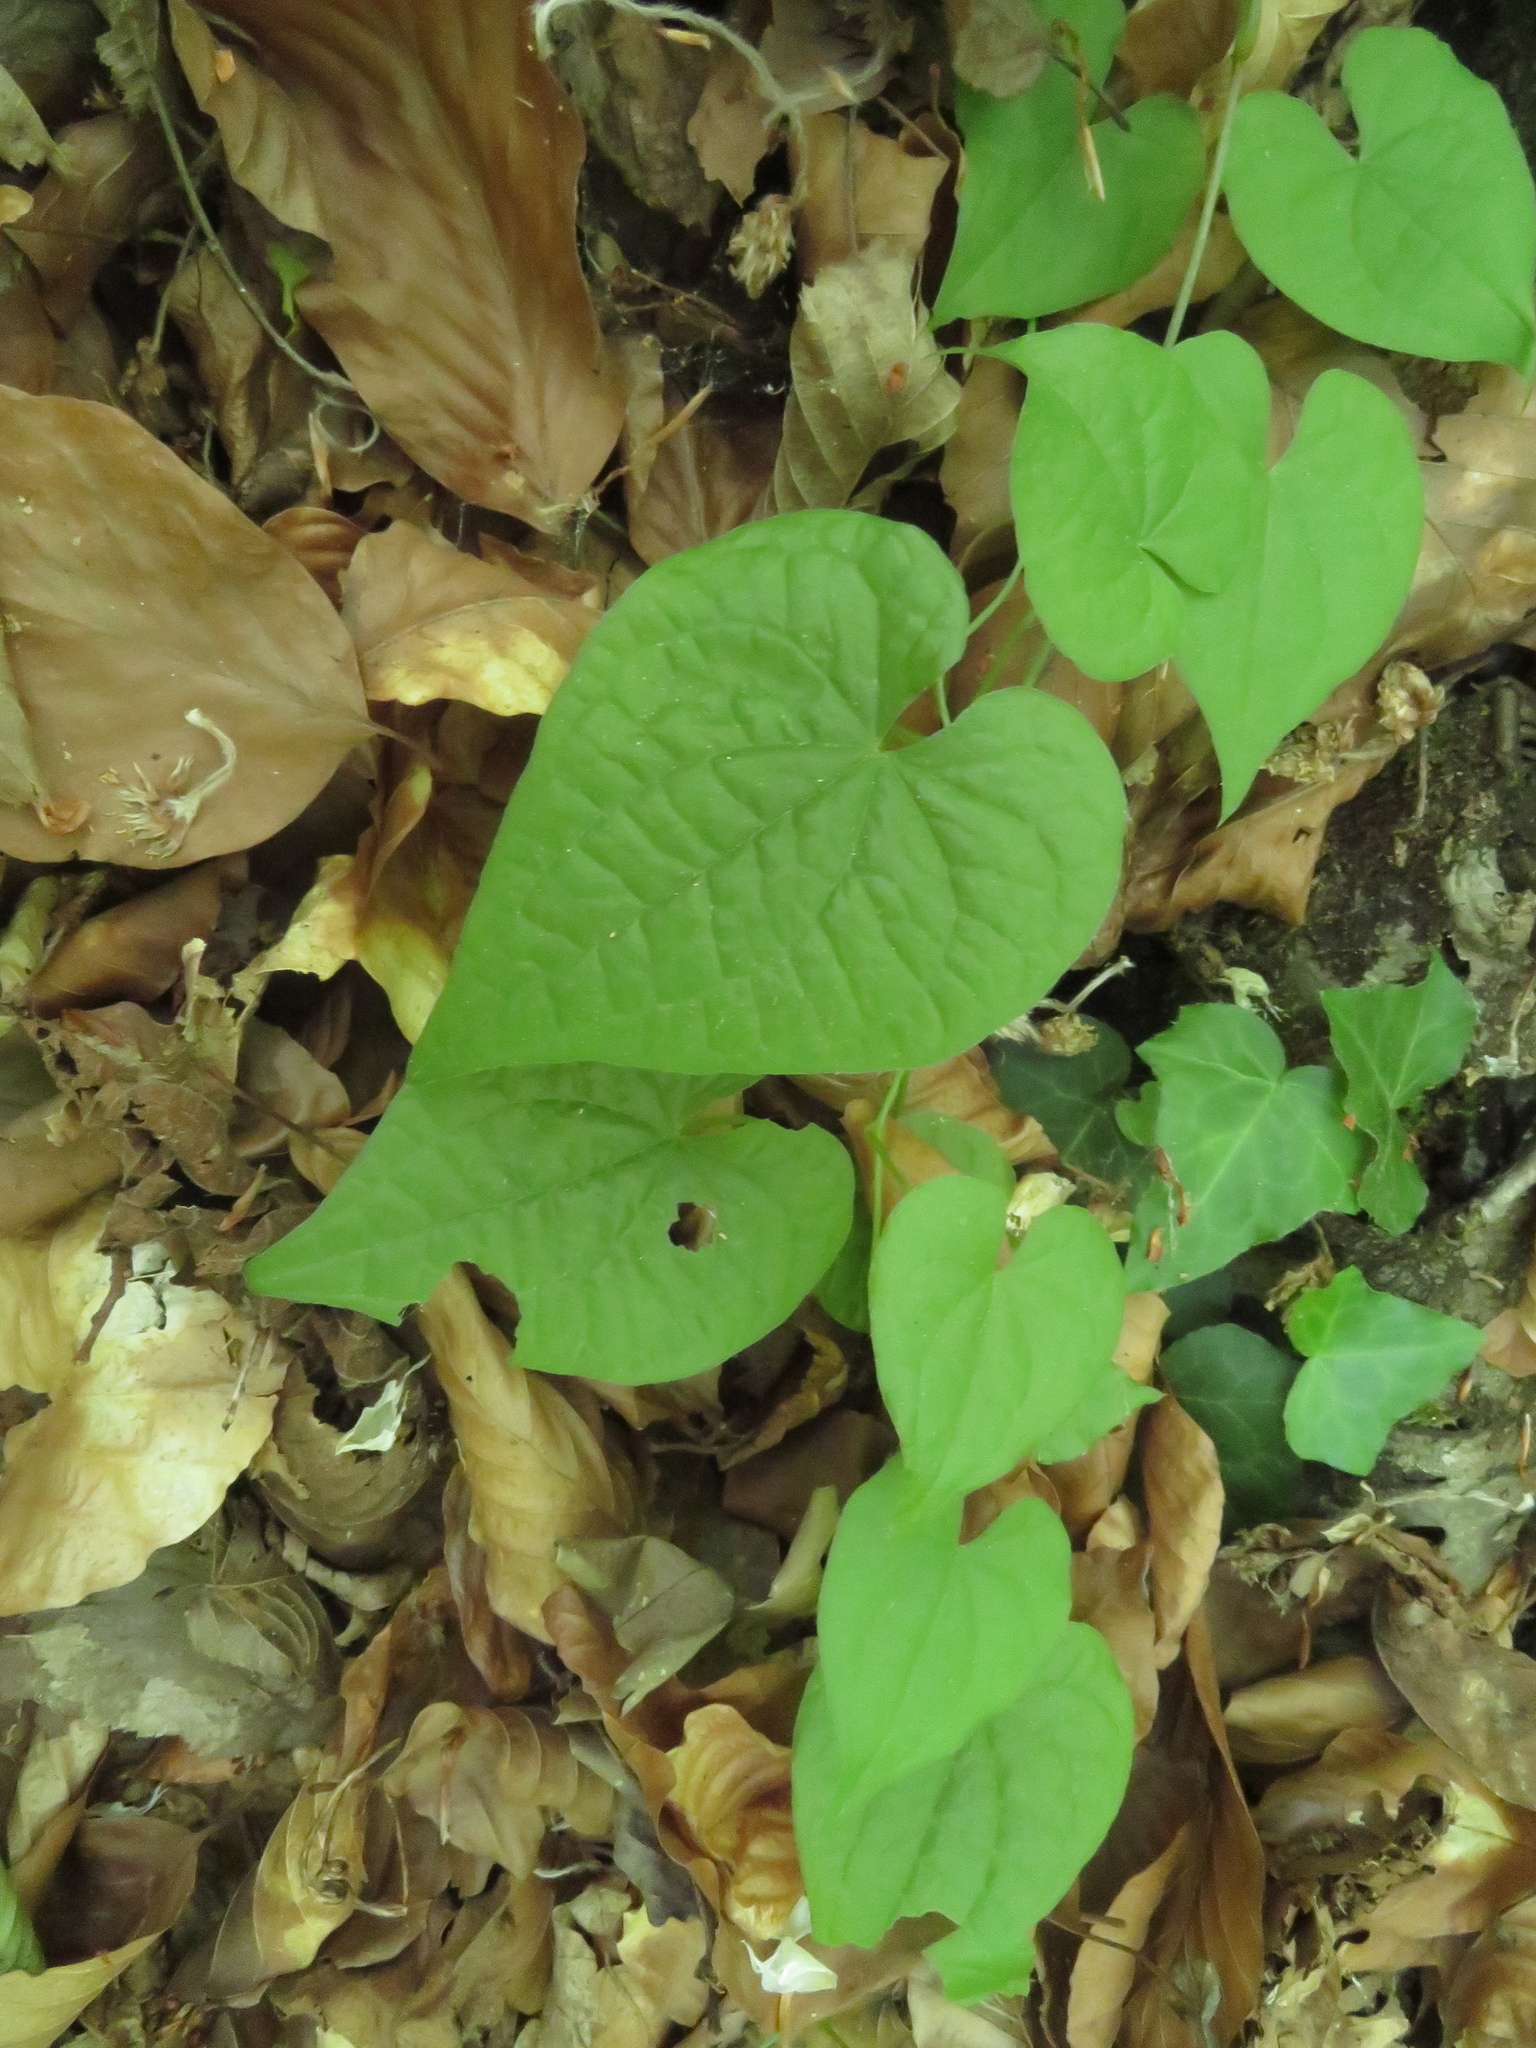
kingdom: Plantae
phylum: Tracheophyta
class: Liliopsida
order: Dioscoreales
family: Dioscoreaceae
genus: Dioscorea
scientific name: Dioscorea communis
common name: Black-bindweed
